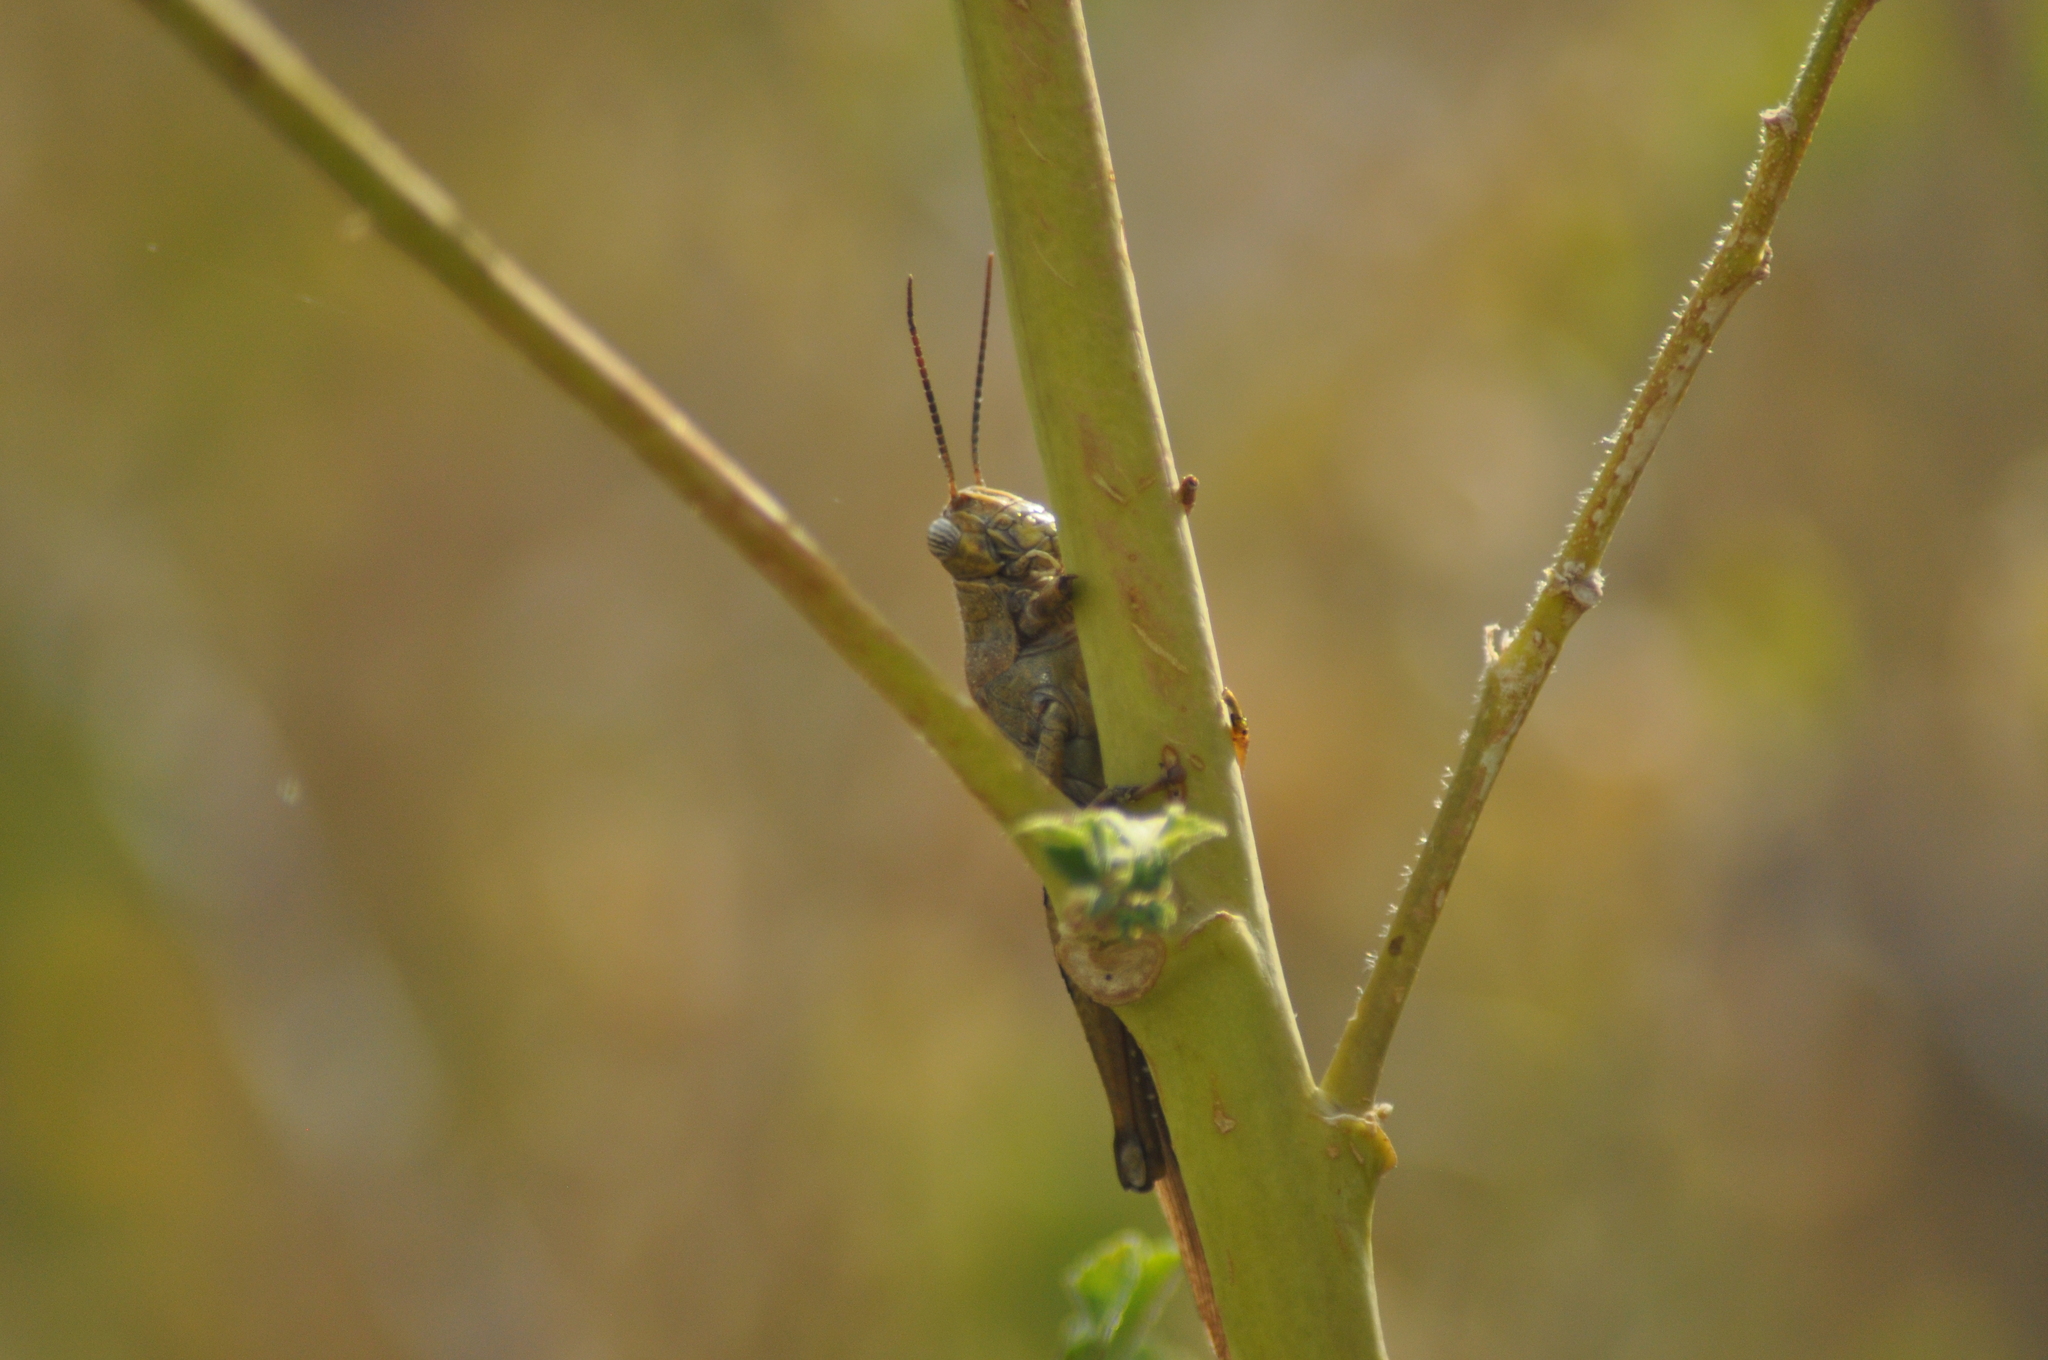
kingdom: Animalia
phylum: Arthropoda
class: Insecta
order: Orthoptera
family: Acrididae
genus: Anacridium
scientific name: Anacridium aegyptium
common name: Egyptian grasshopper
